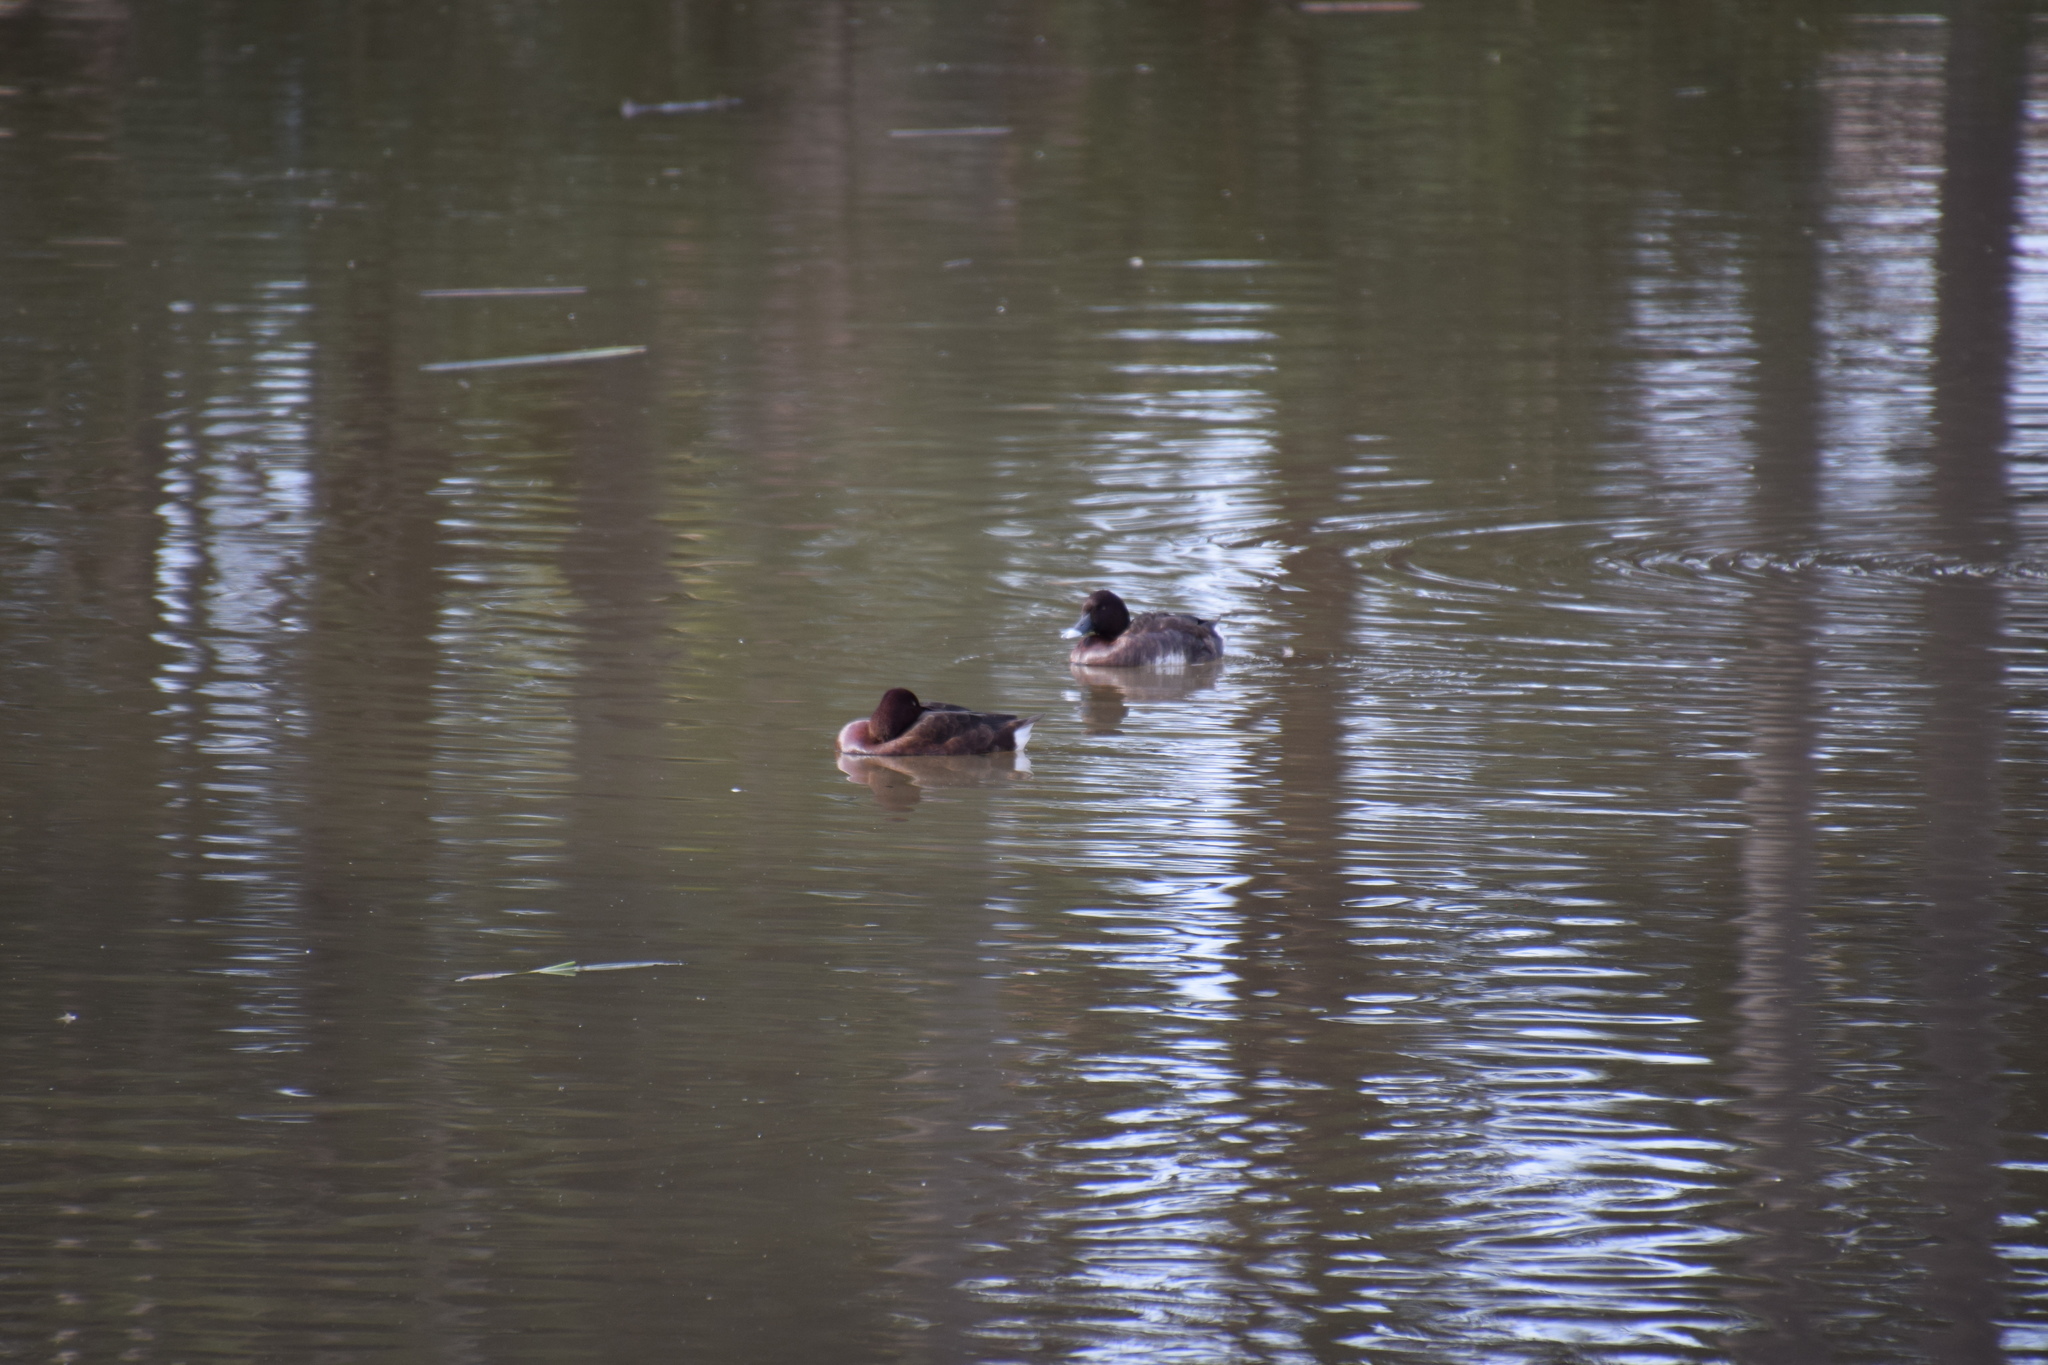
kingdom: Animalia
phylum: Chordata
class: Aves
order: Anseriformes
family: Anatidae
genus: Aythya
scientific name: Aythya australis
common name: Hardhead
